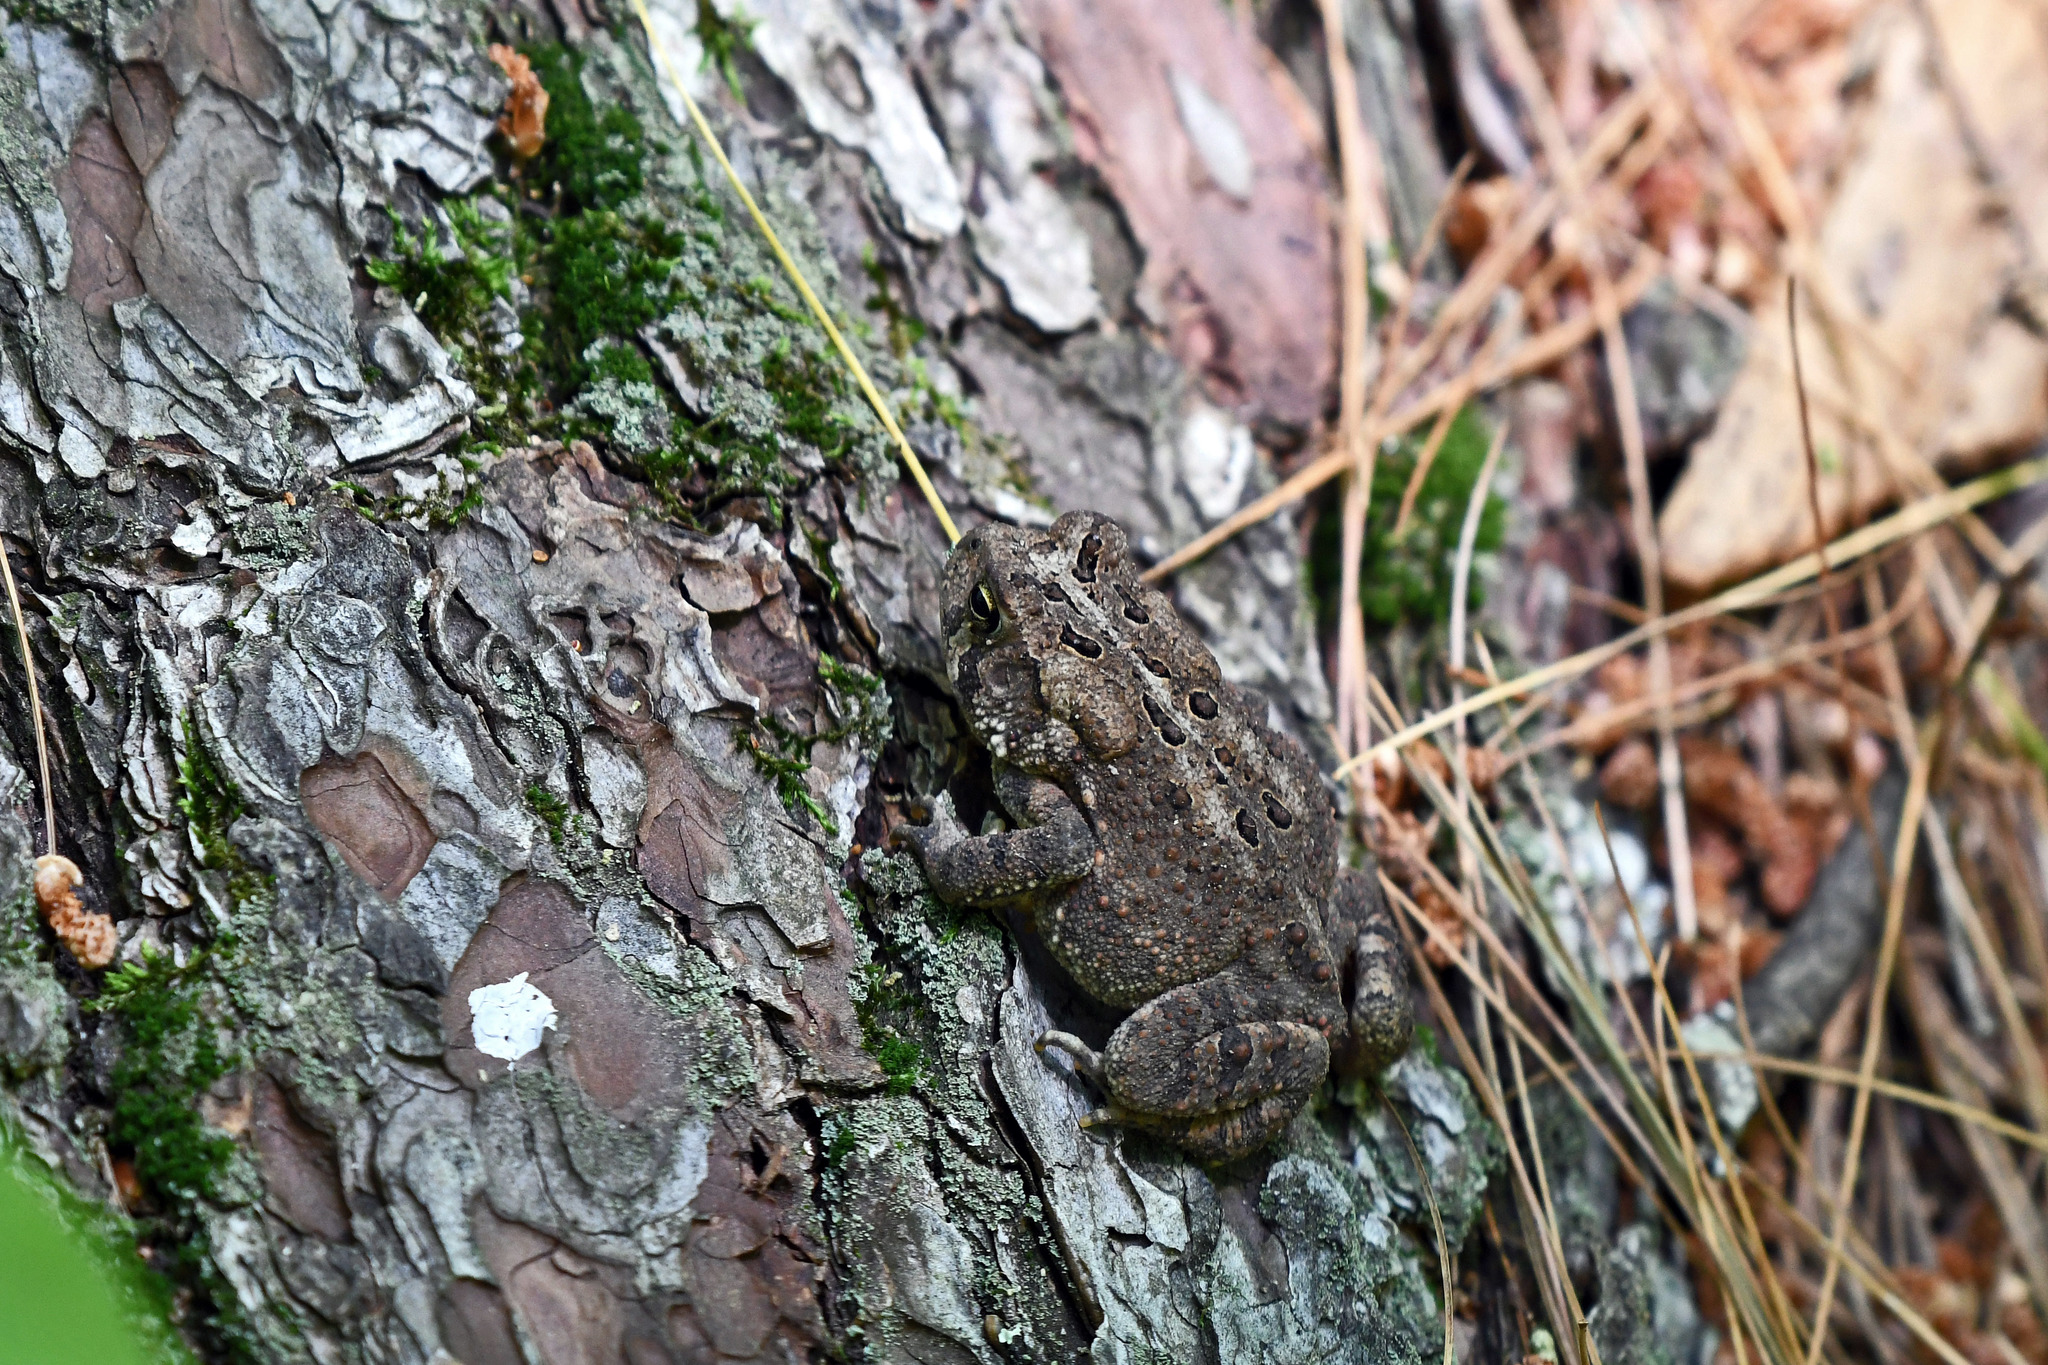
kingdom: Animalia
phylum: Chordata
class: Amphibia
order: Anura
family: Bufonidae
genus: Anaxyrus
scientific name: Anaxyrus americanus
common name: American toad
